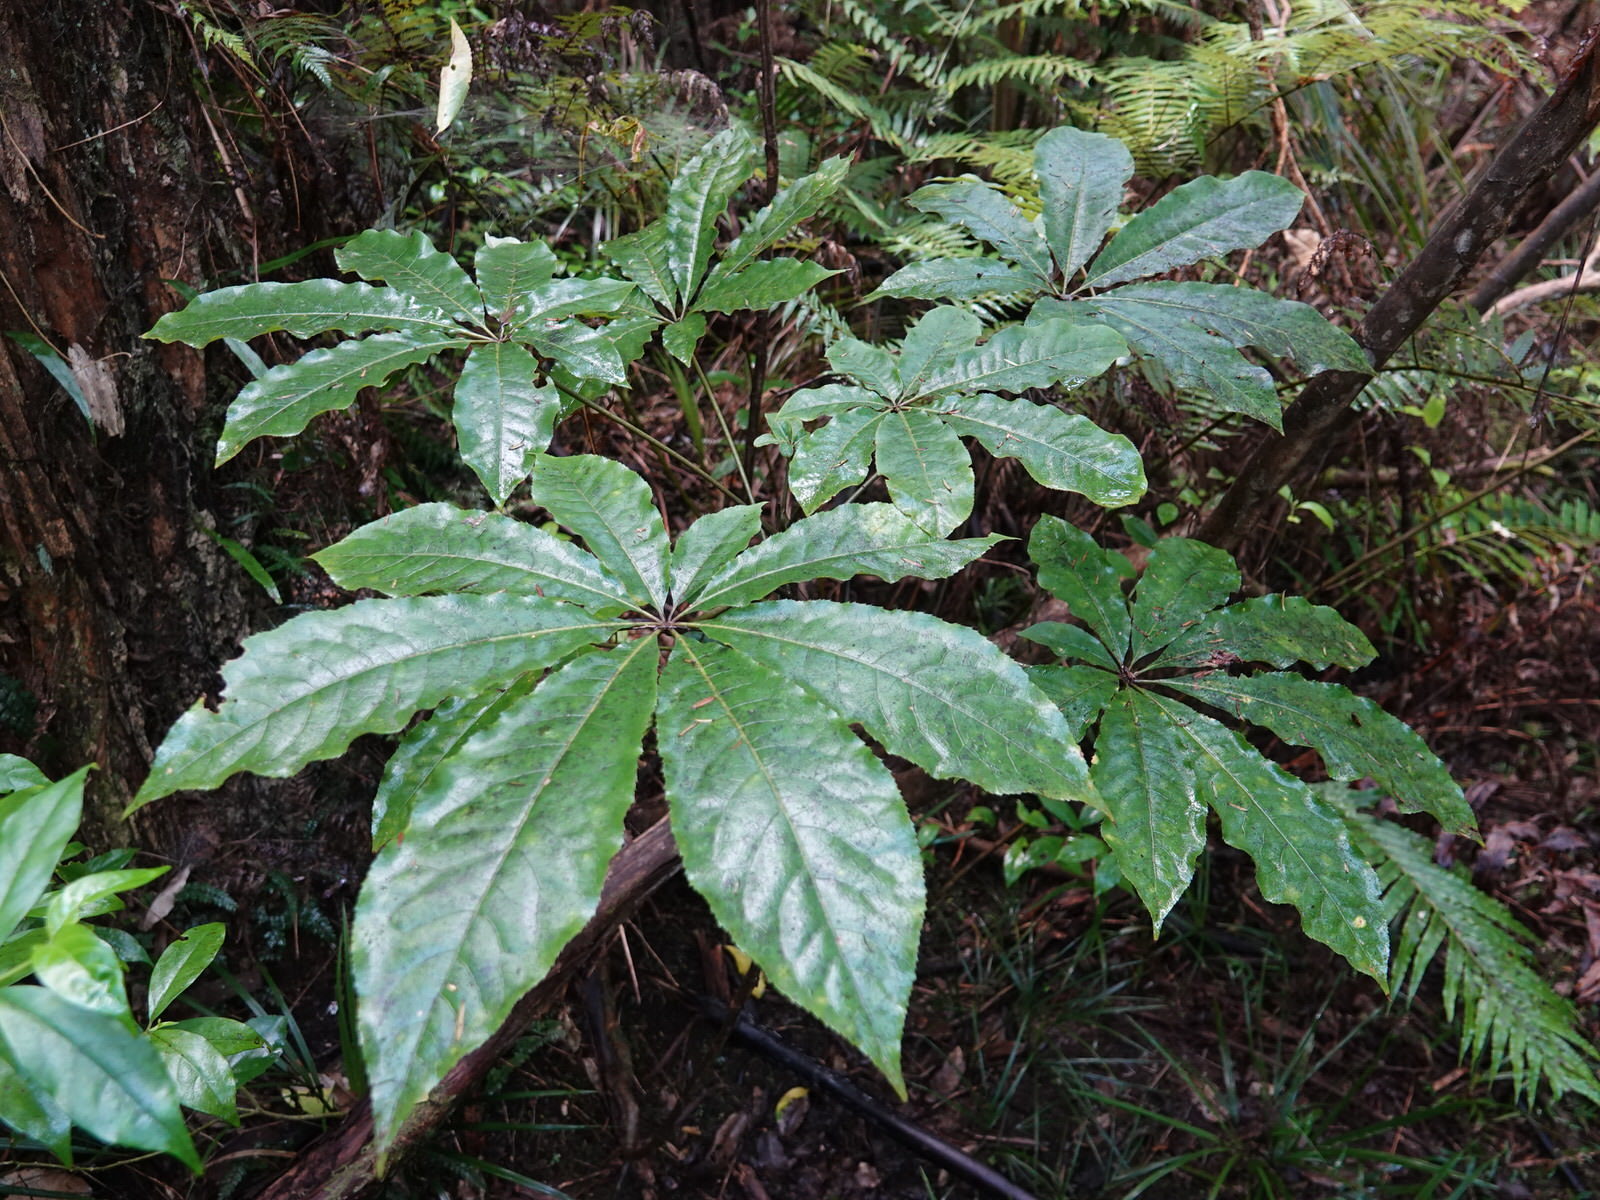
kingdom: Plantae
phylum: Tracheophyta
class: Magnoliopsida
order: Apiales
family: Araliaceae
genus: Schefflera
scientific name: Schefflera digitata
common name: Pate
